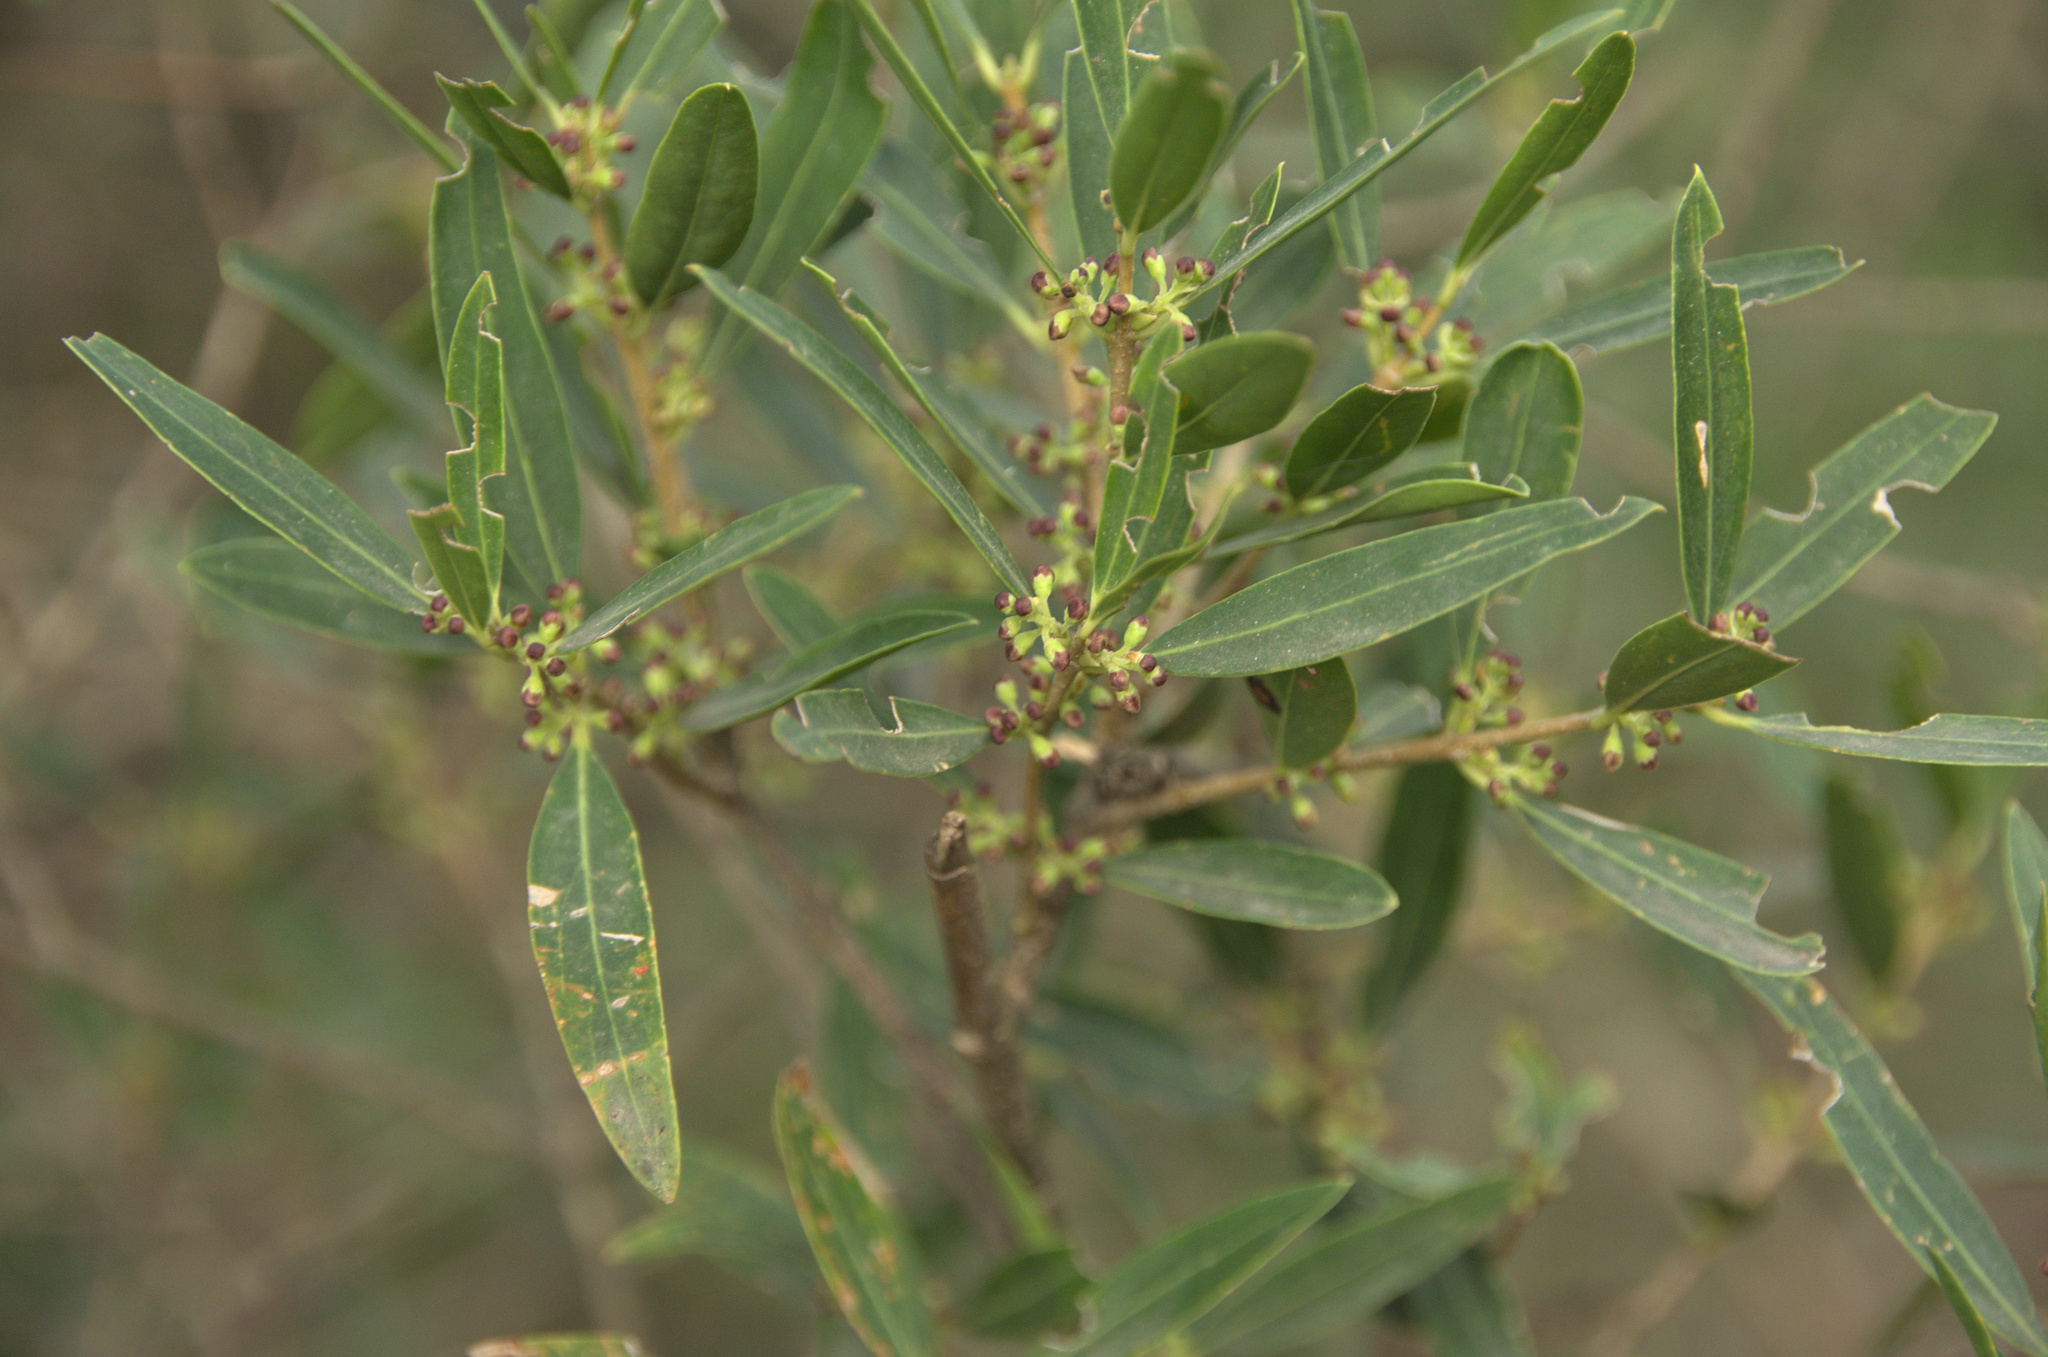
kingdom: Plantae
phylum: Tracheophyta
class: Magnoliopsida
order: Lamiales
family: Oleaceae
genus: Phillyrea
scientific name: Phillyrea angustifolia
